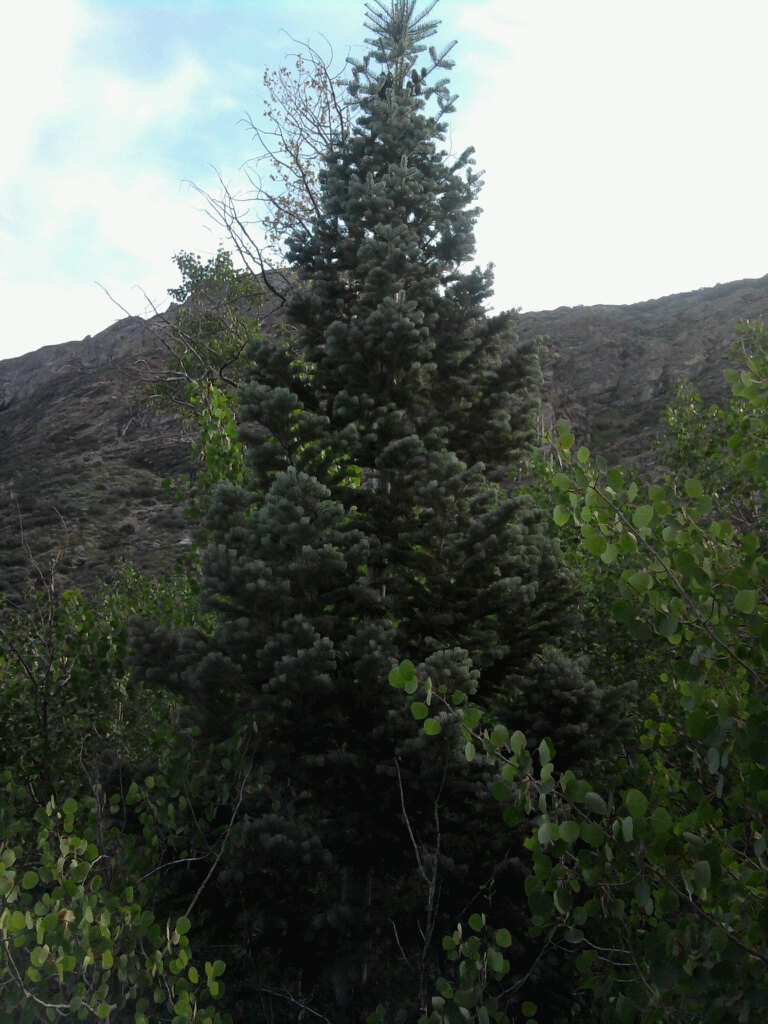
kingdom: Plantae
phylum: Tracheophyta
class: Pinopsida
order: Pinales
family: Pinaceae
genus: Abies
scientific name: Abies concolor
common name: Colorado fir
